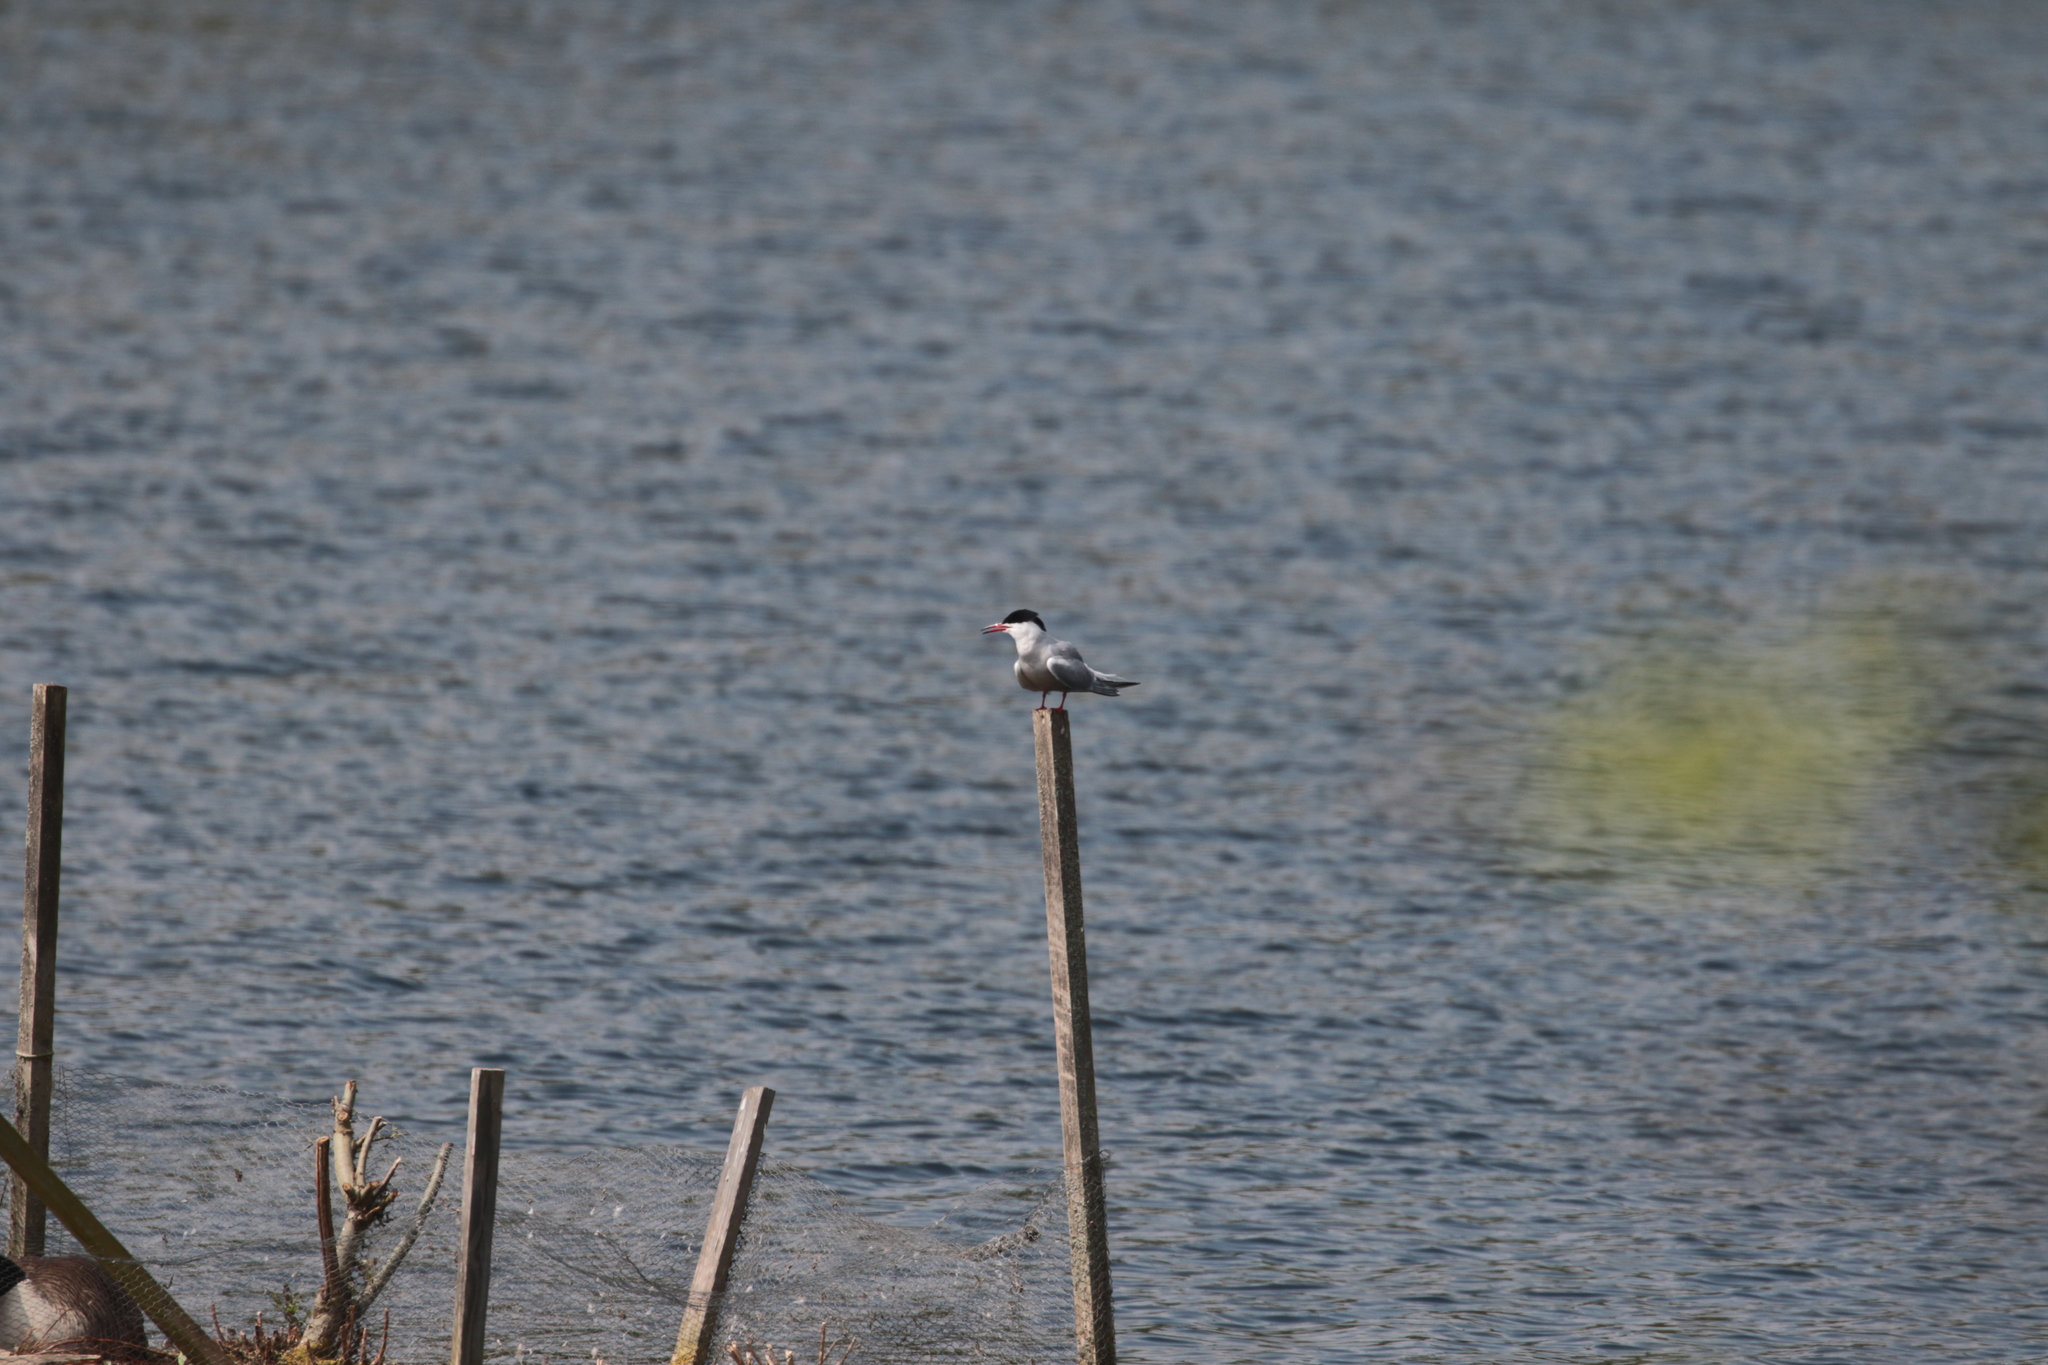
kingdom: Animalia
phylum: Chordata
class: Aves
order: Charadriiformes
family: Laridae
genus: Sterna
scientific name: Sterna hirundo
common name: Common tern
